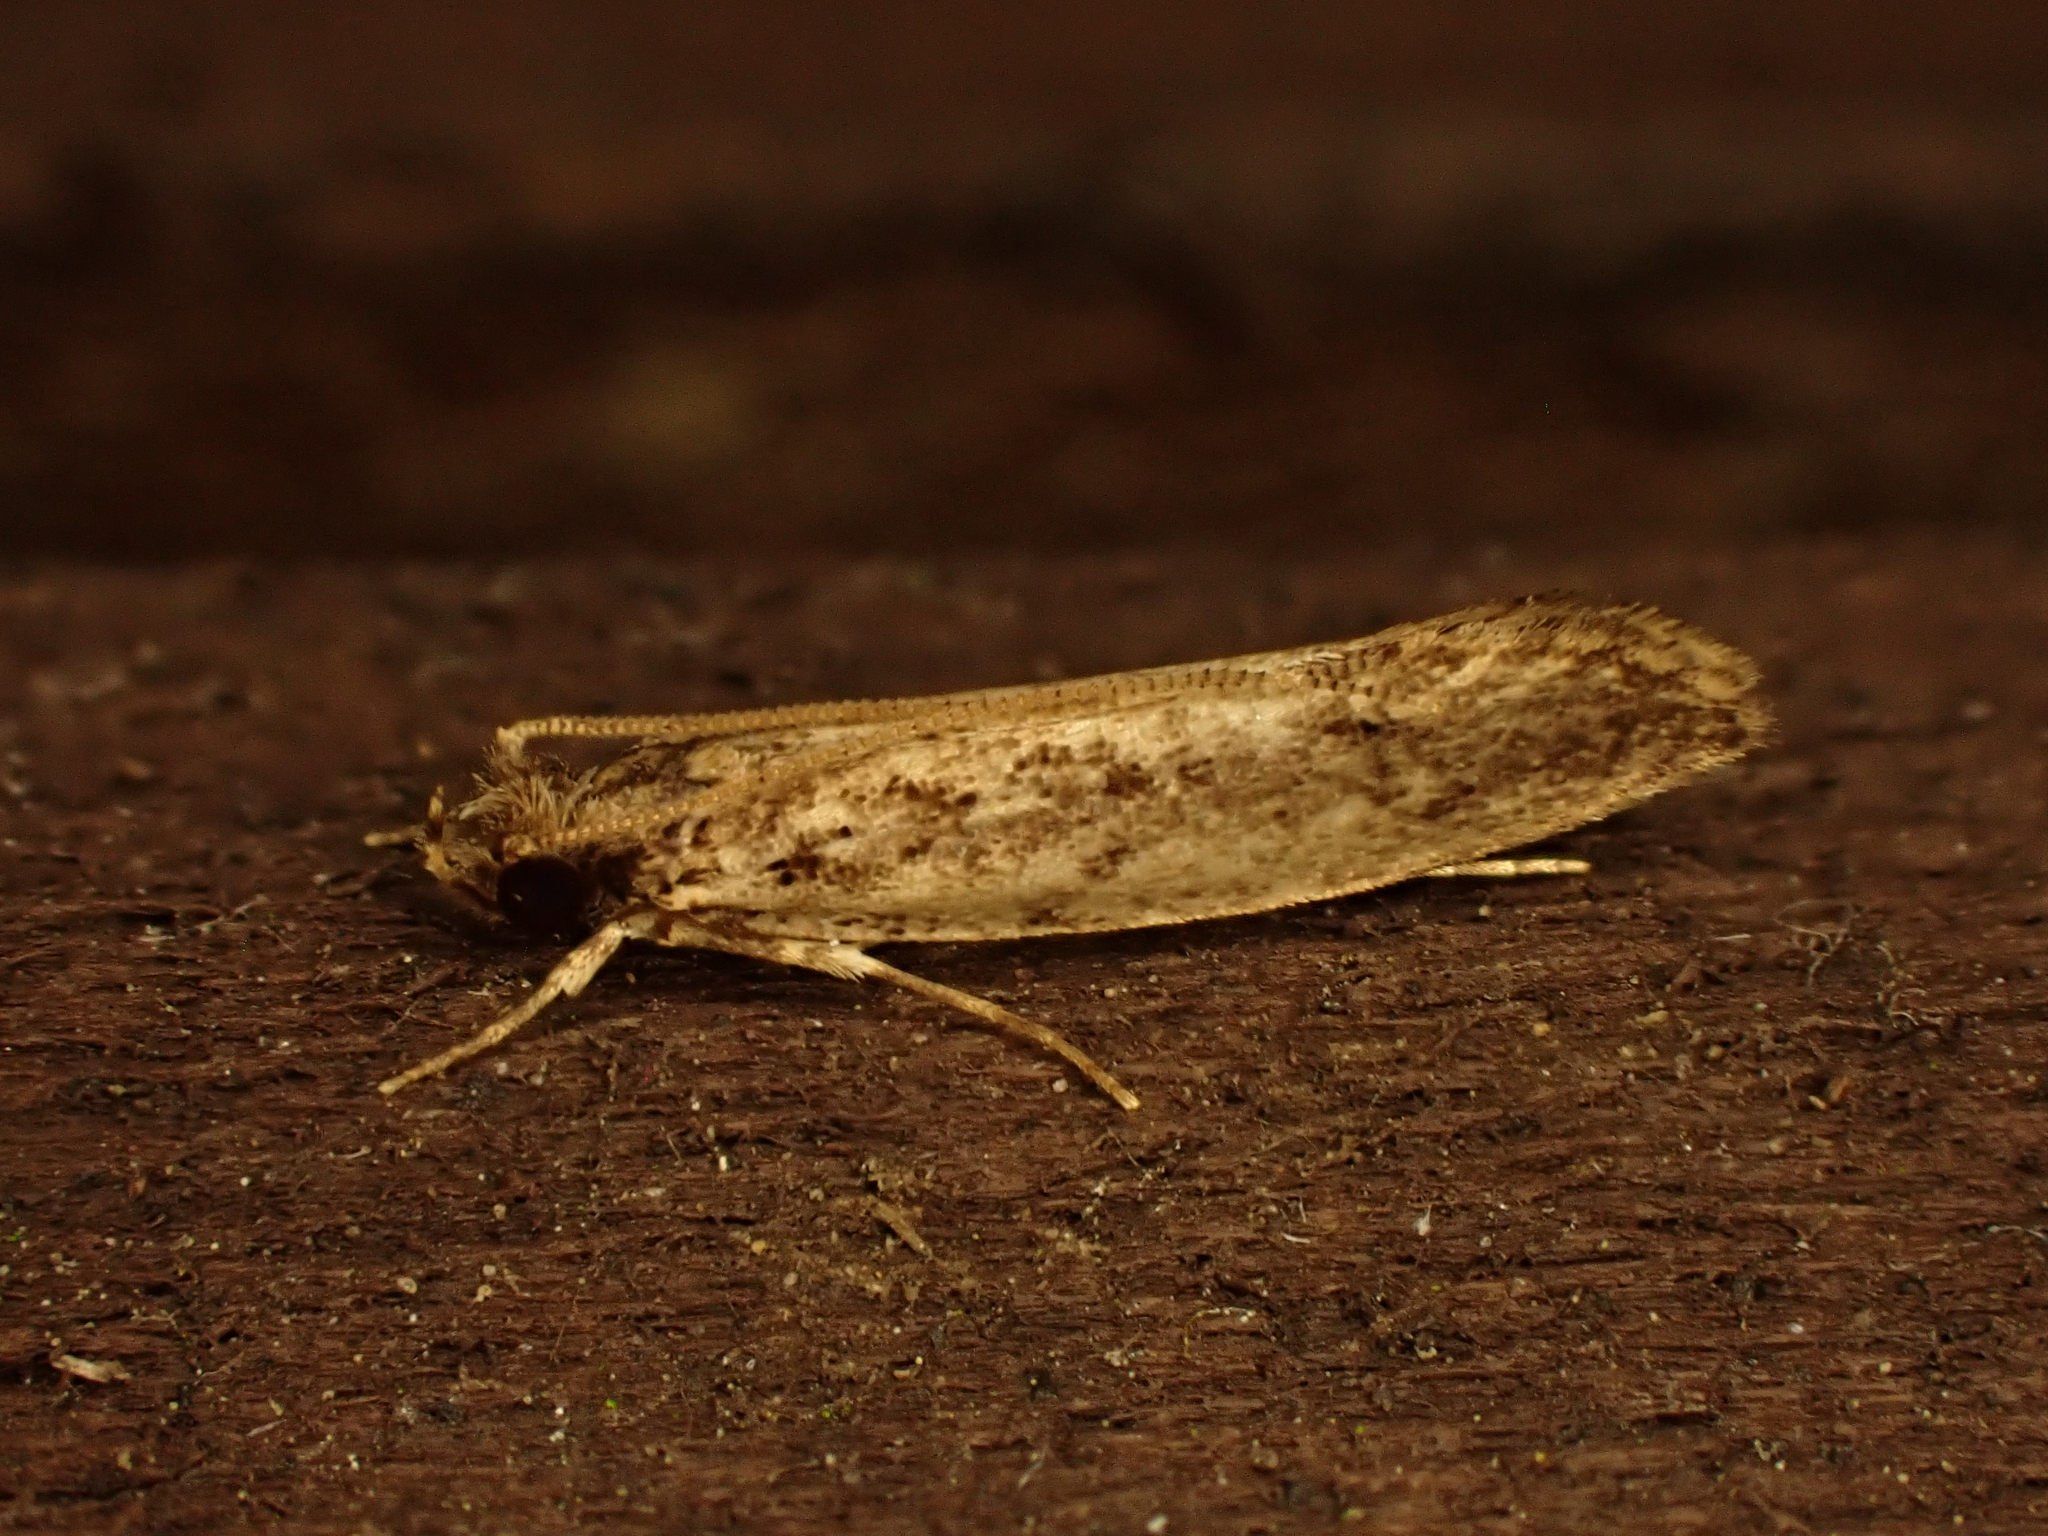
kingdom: Animalia
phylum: Arthropoda
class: Insecta
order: Lepidoptera
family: Tineidae
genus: Erechthias
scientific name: Erechthias capnitis
